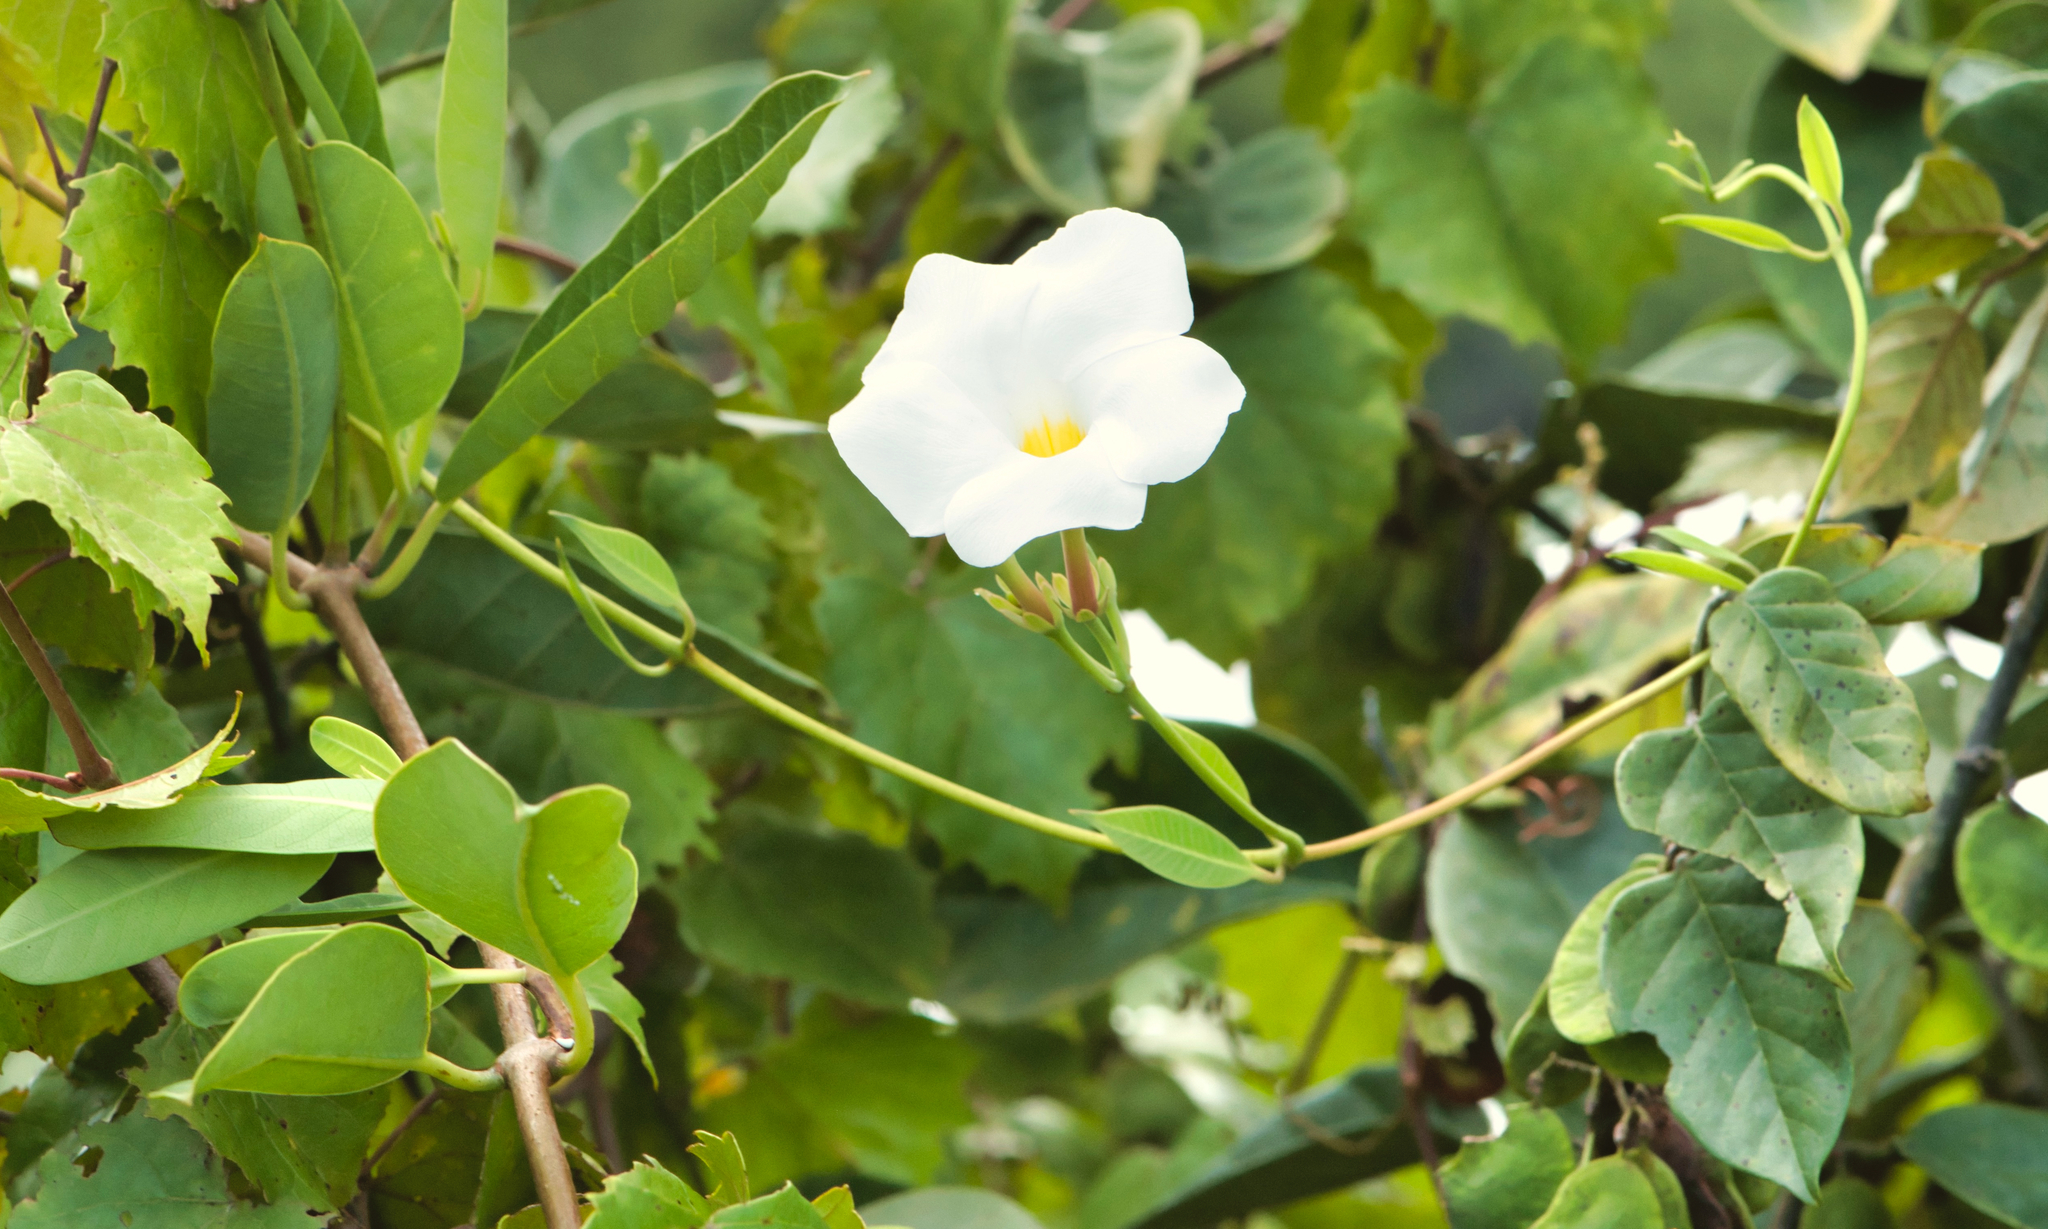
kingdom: Plantae
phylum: Tracheophyta
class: Magnoliopsida
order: Gentianales
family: Apocynaceae
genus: Rhabdadenia
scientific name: Rhabdadenia biflora
